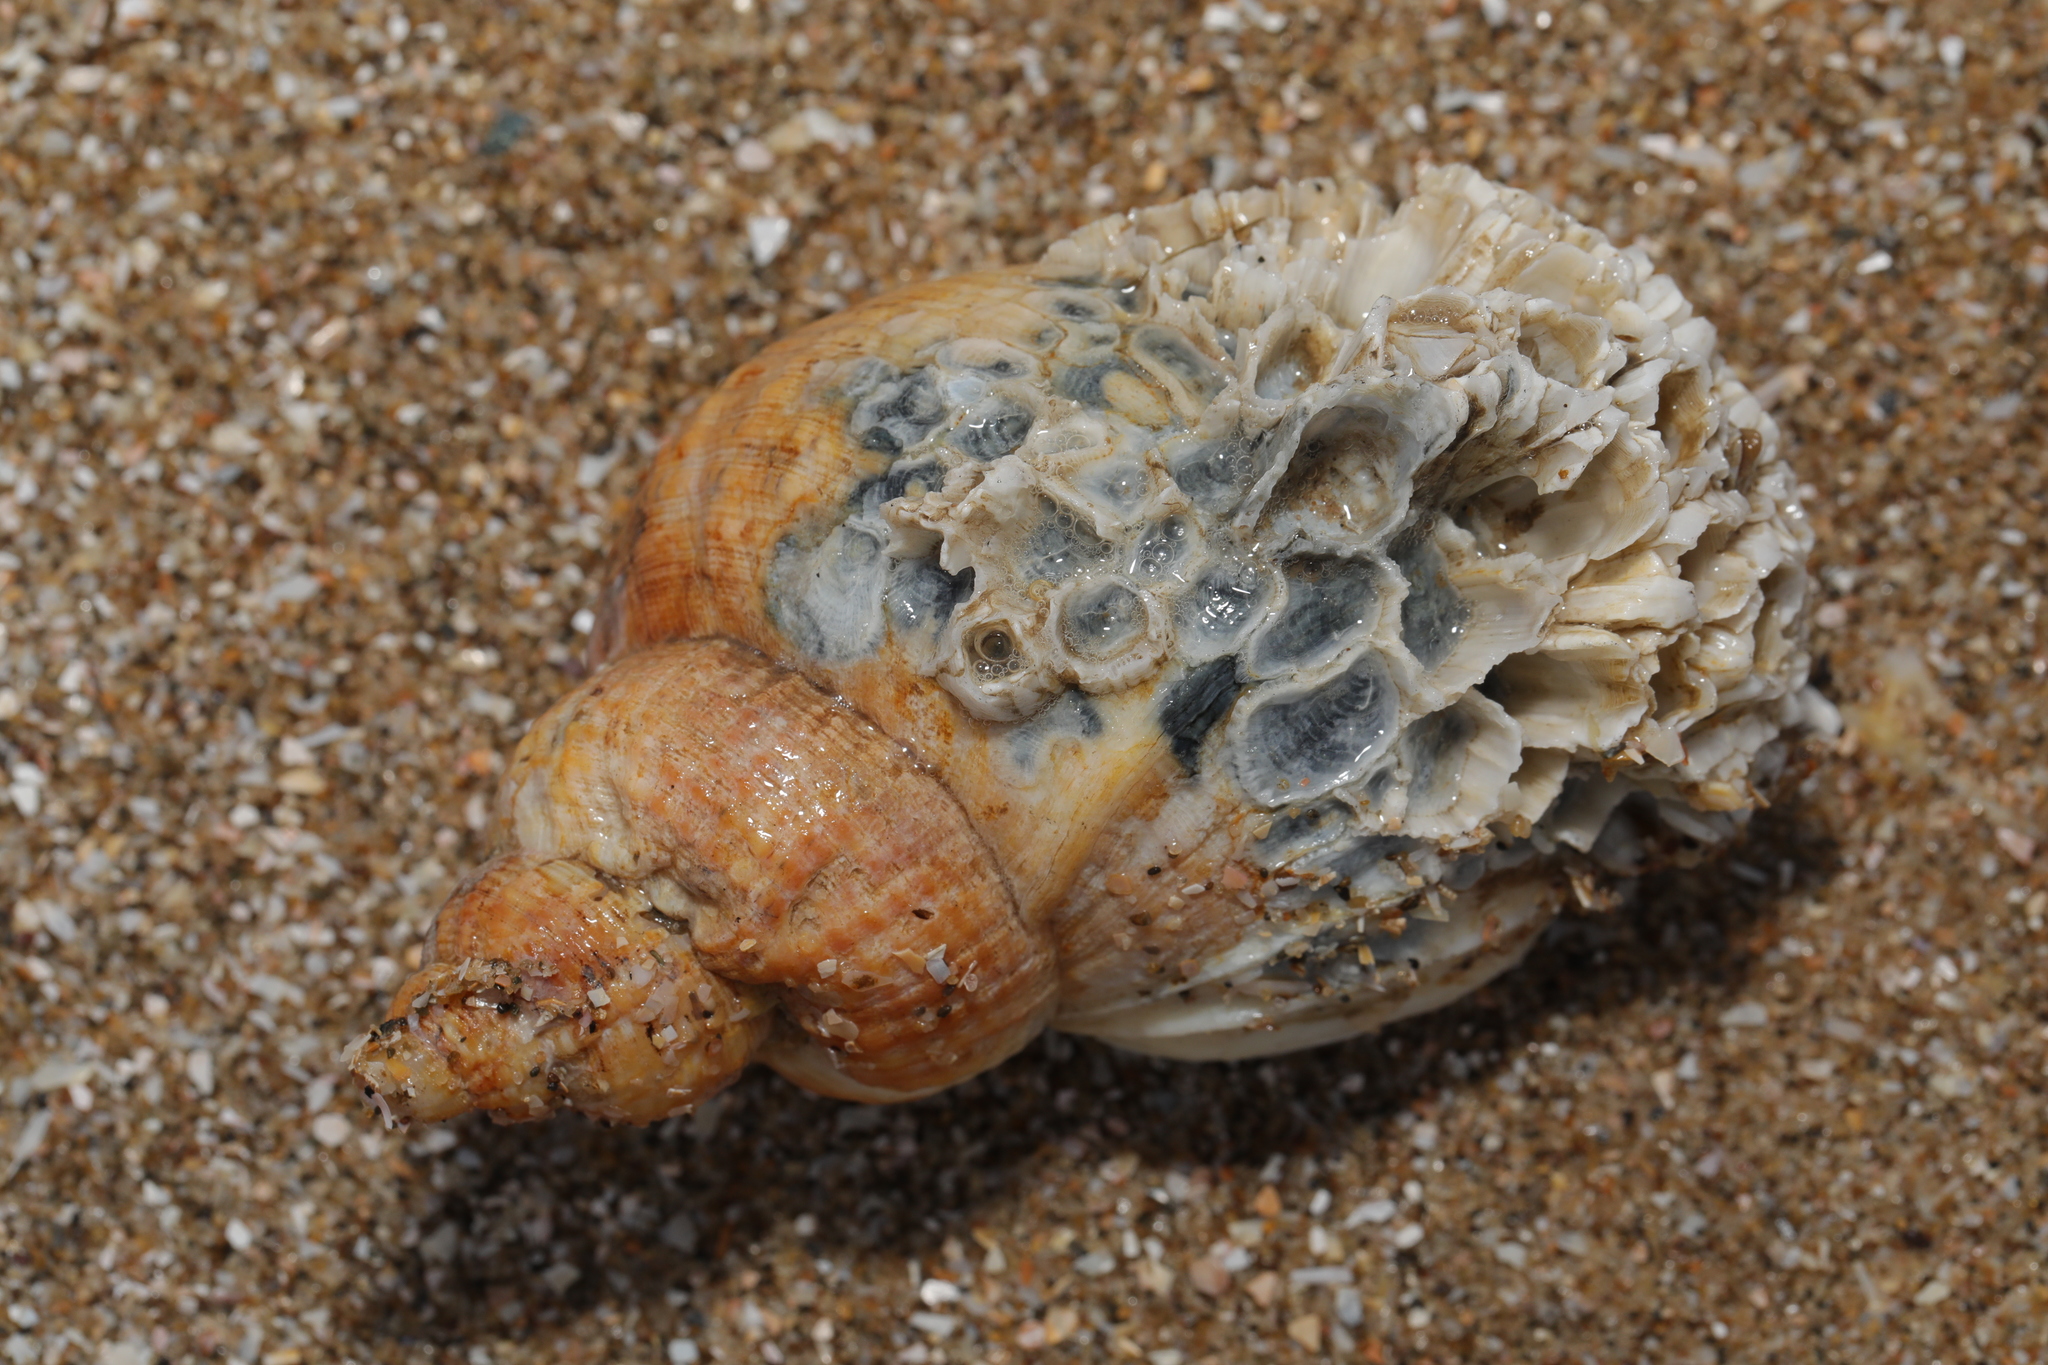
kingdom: Animalia
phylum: Mollusca
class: Gastropoda
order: Neogastropoda
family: Buccinidae
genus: Buccinum
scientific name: Buccinum undatum
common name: Common whelk
